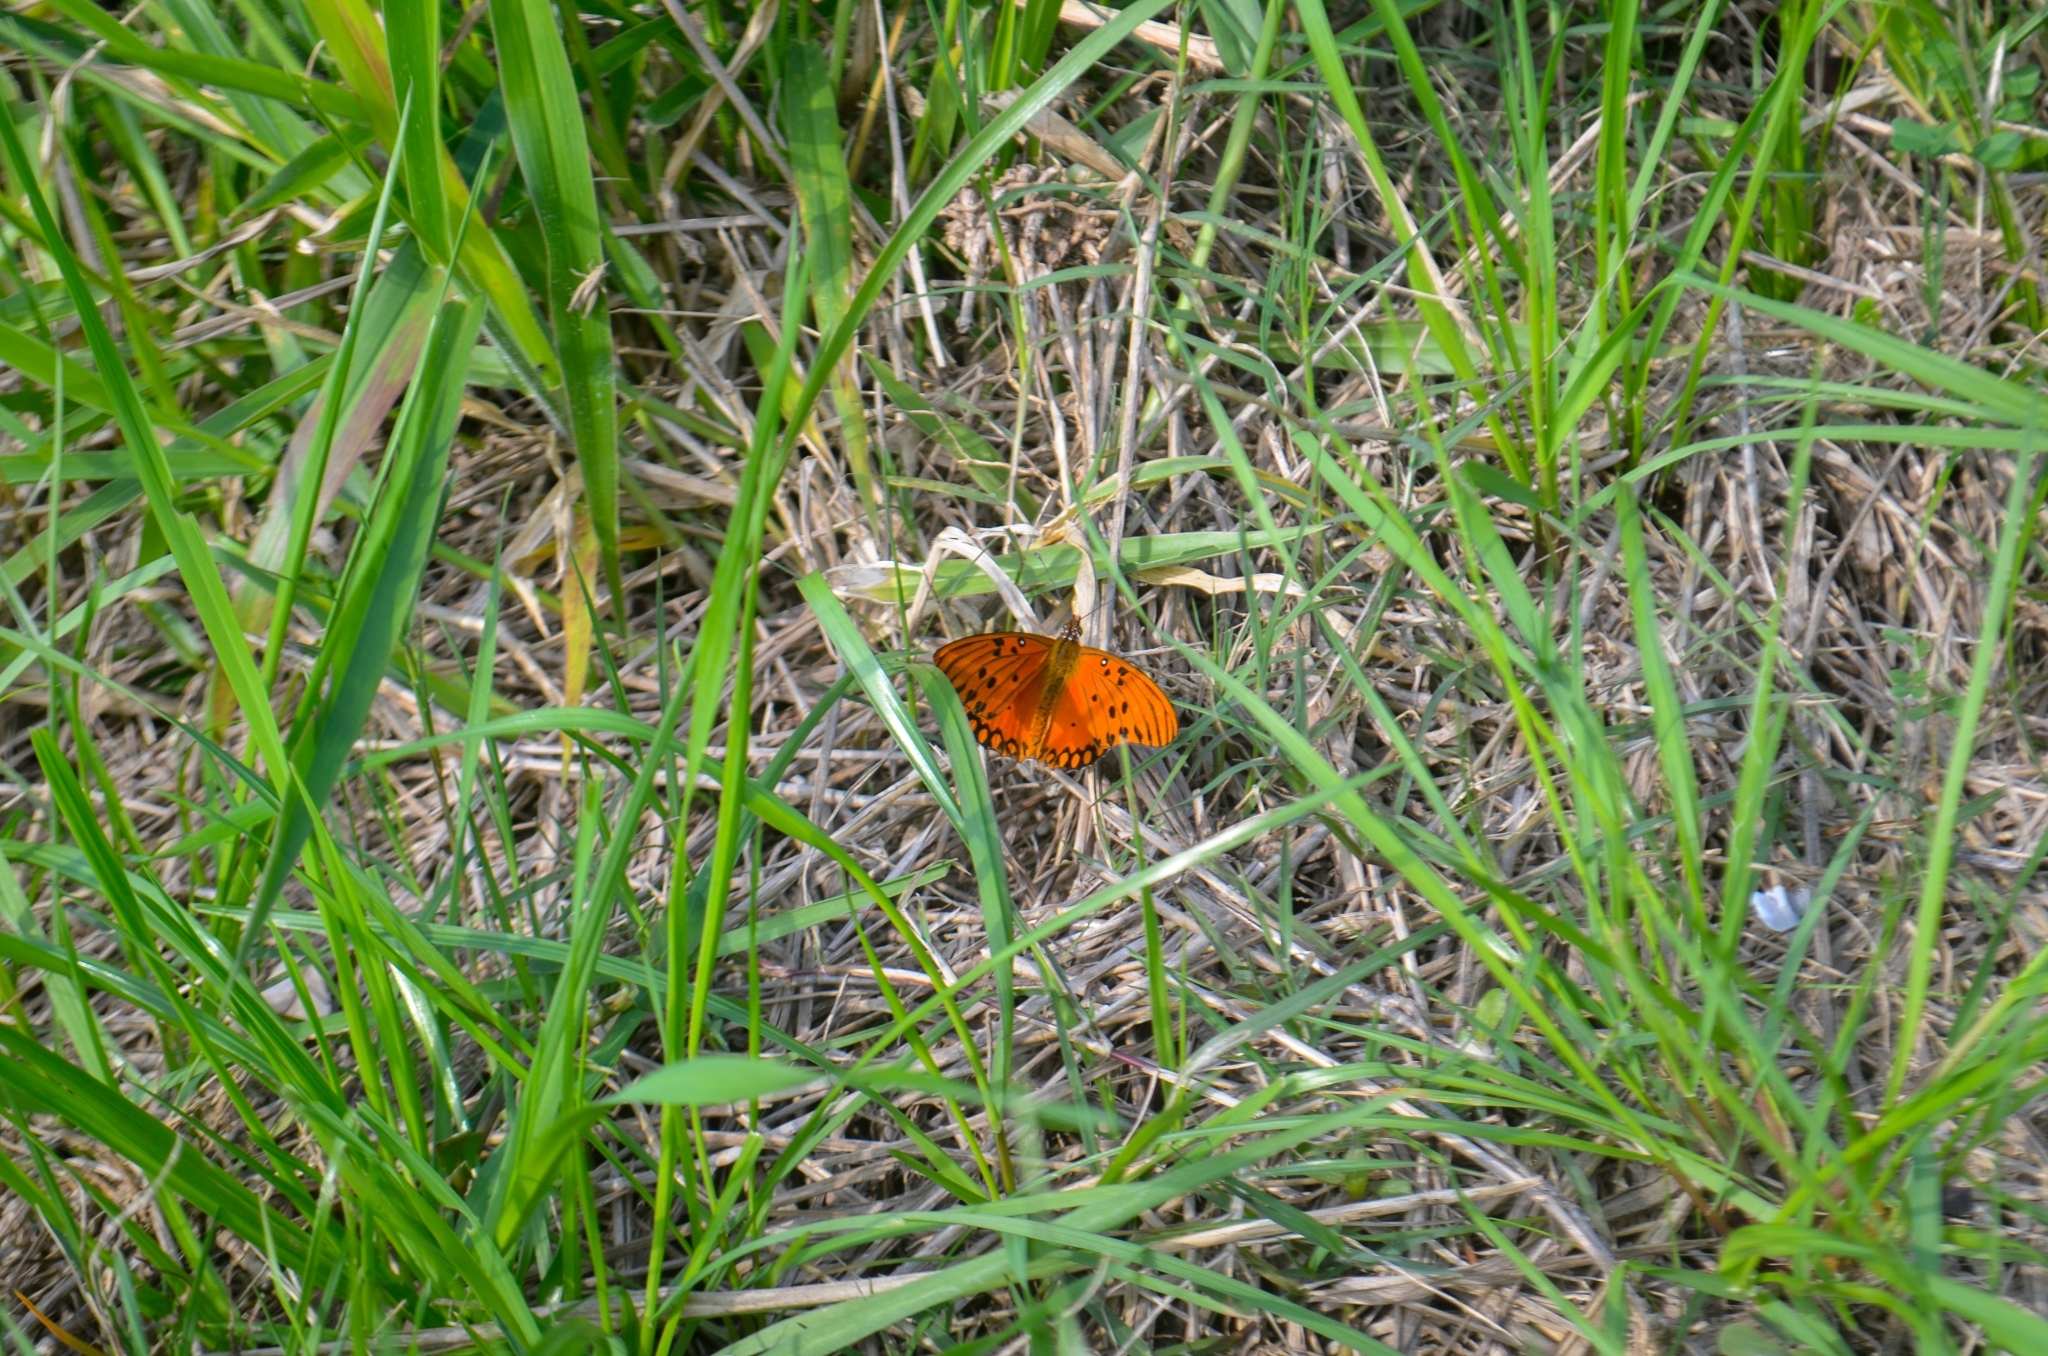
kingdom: Animalia
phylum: Arthropoda
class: Insecta
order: Lepidoptera
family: Nymphalidae
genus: Dione
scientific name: Dione vanillae
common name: Gulf fritillary
